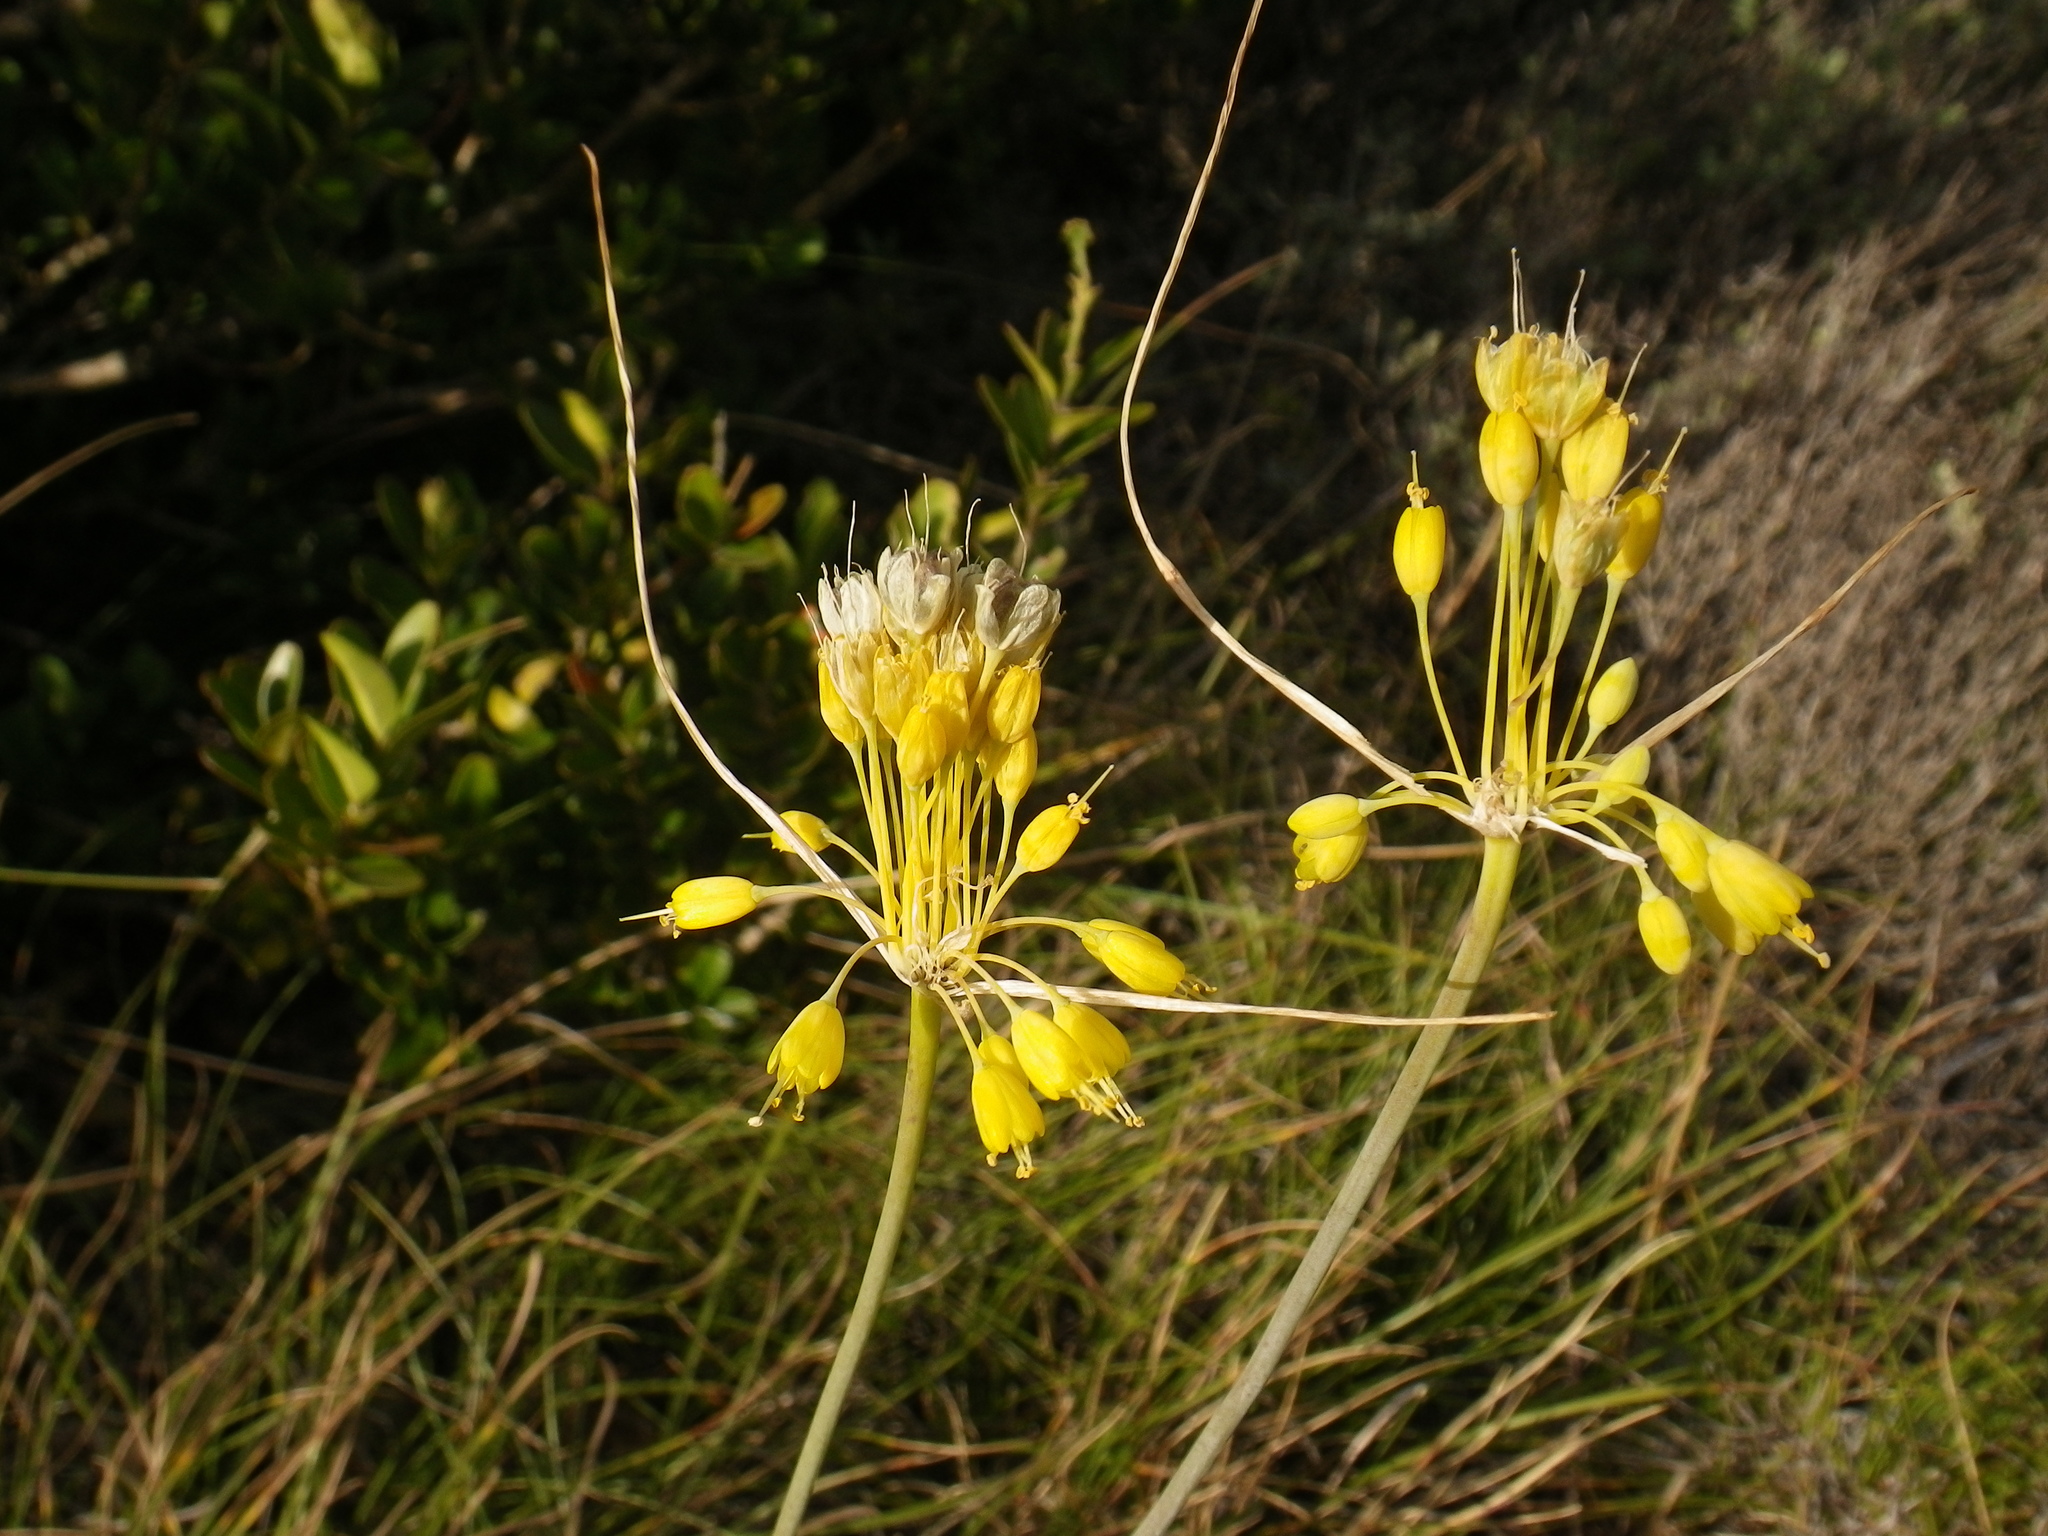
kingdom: Plantae
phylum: Tracheophyta
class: Liliopsida
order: Asparagales
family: Amaryllidaceae
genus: Allium
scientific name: Allium flavum
